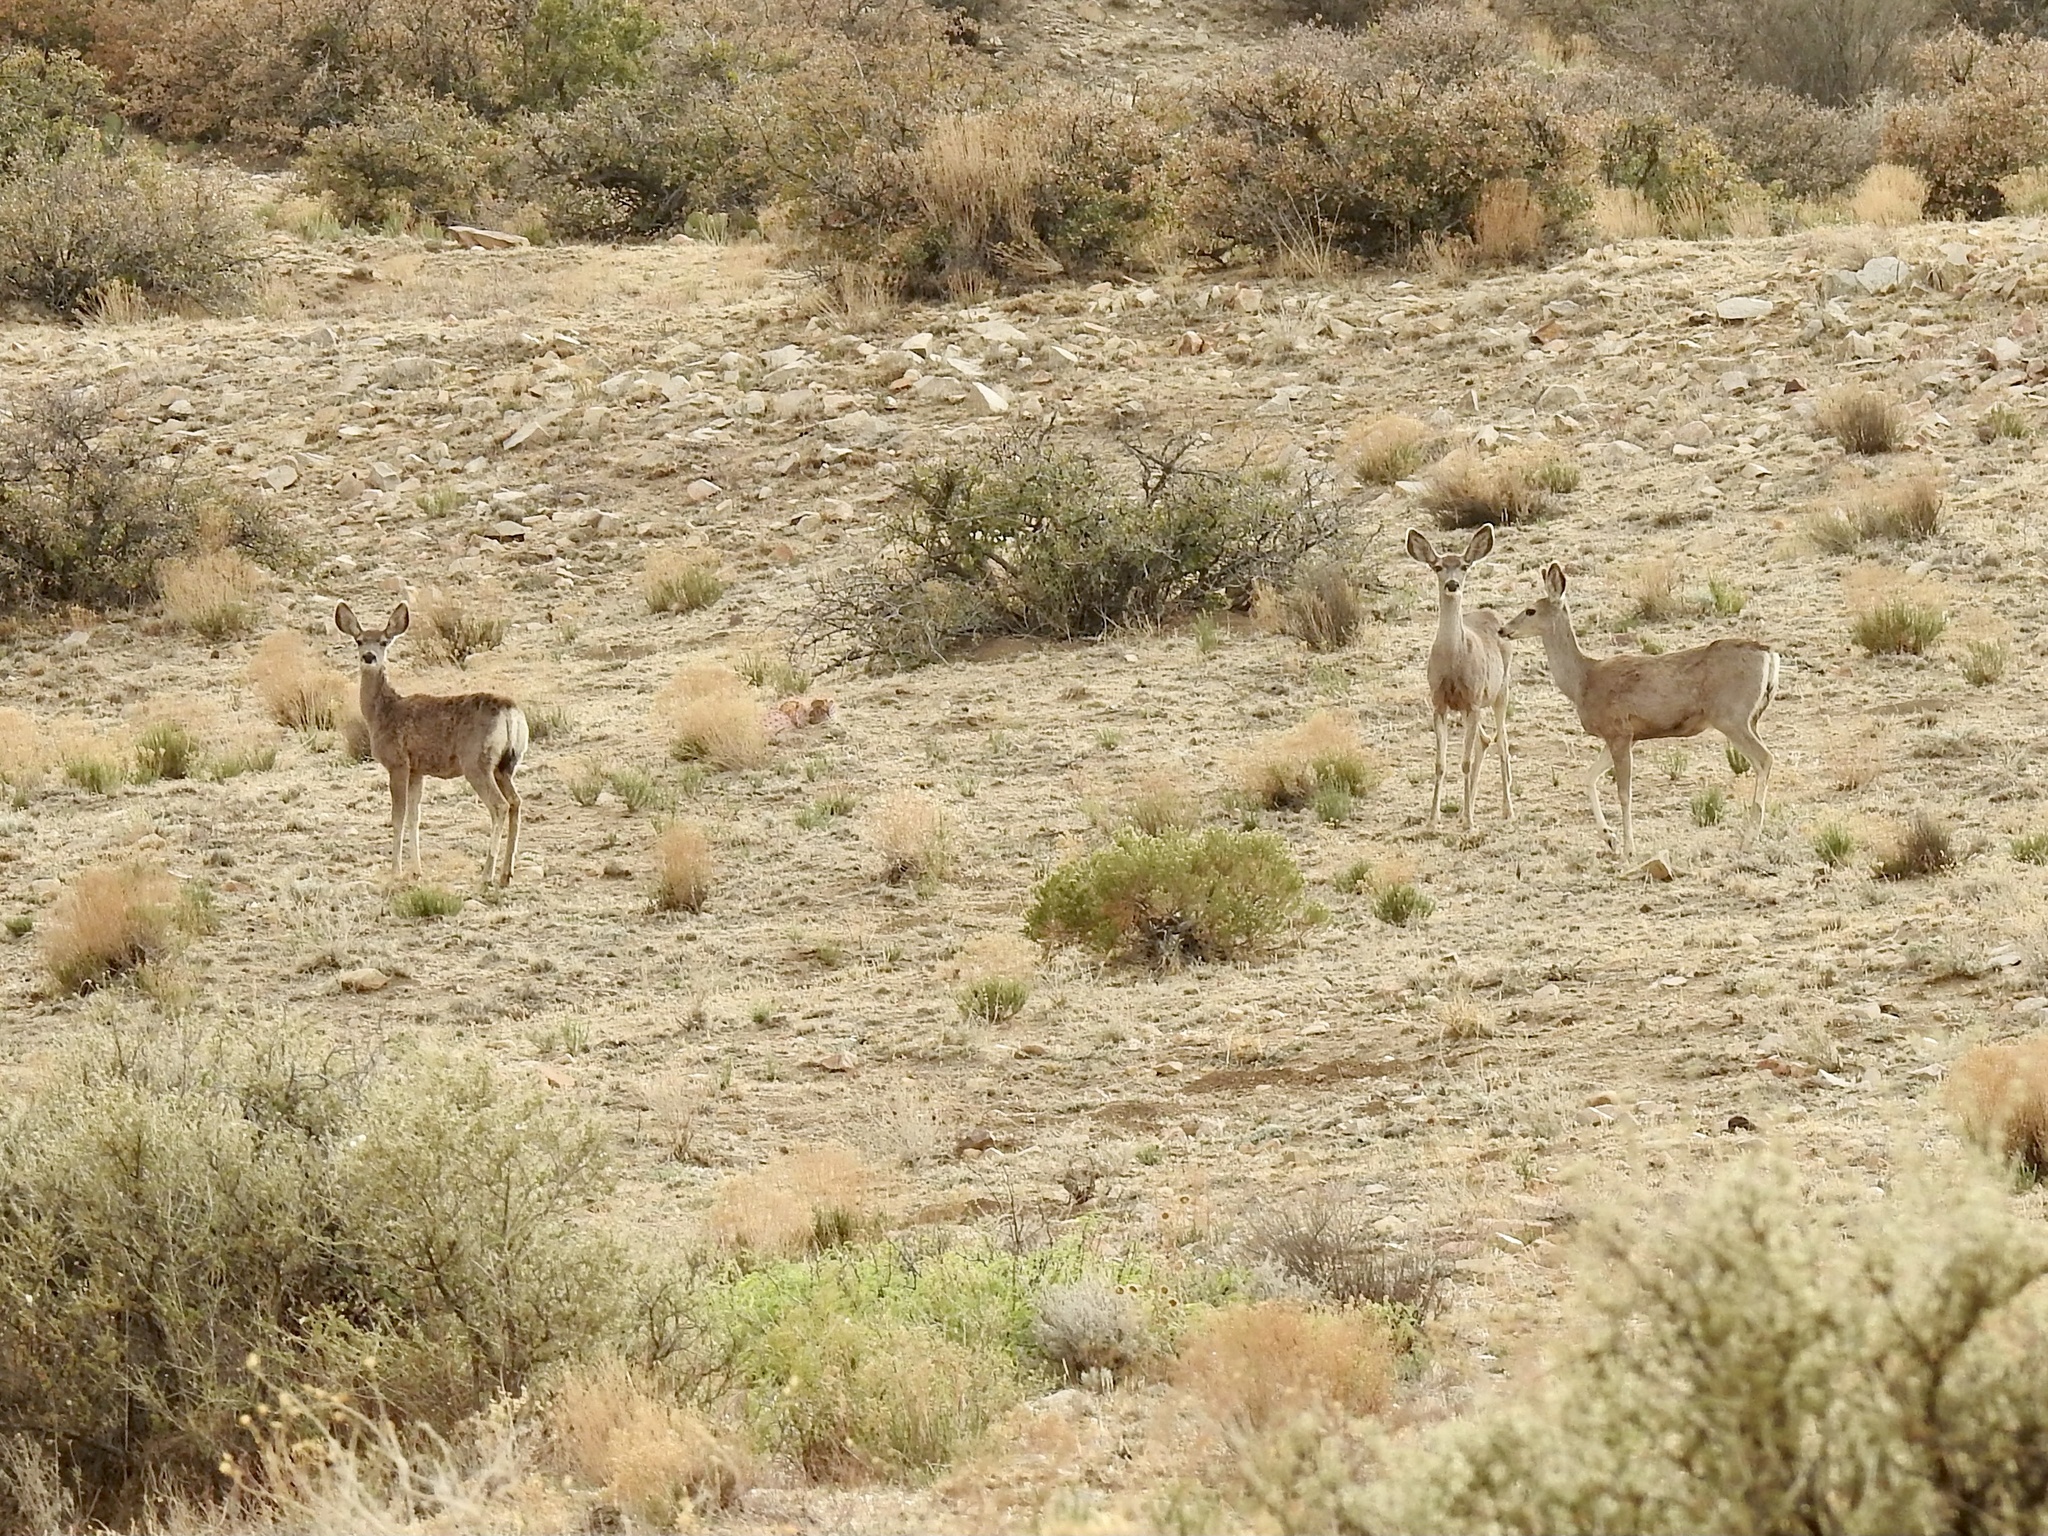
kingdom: Animalia
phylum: Chordata
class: Mammalia
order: Artiodactyla
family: Cervidae
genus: Odocoileus
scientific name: Odocoileus hemionus
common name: Mule deer
